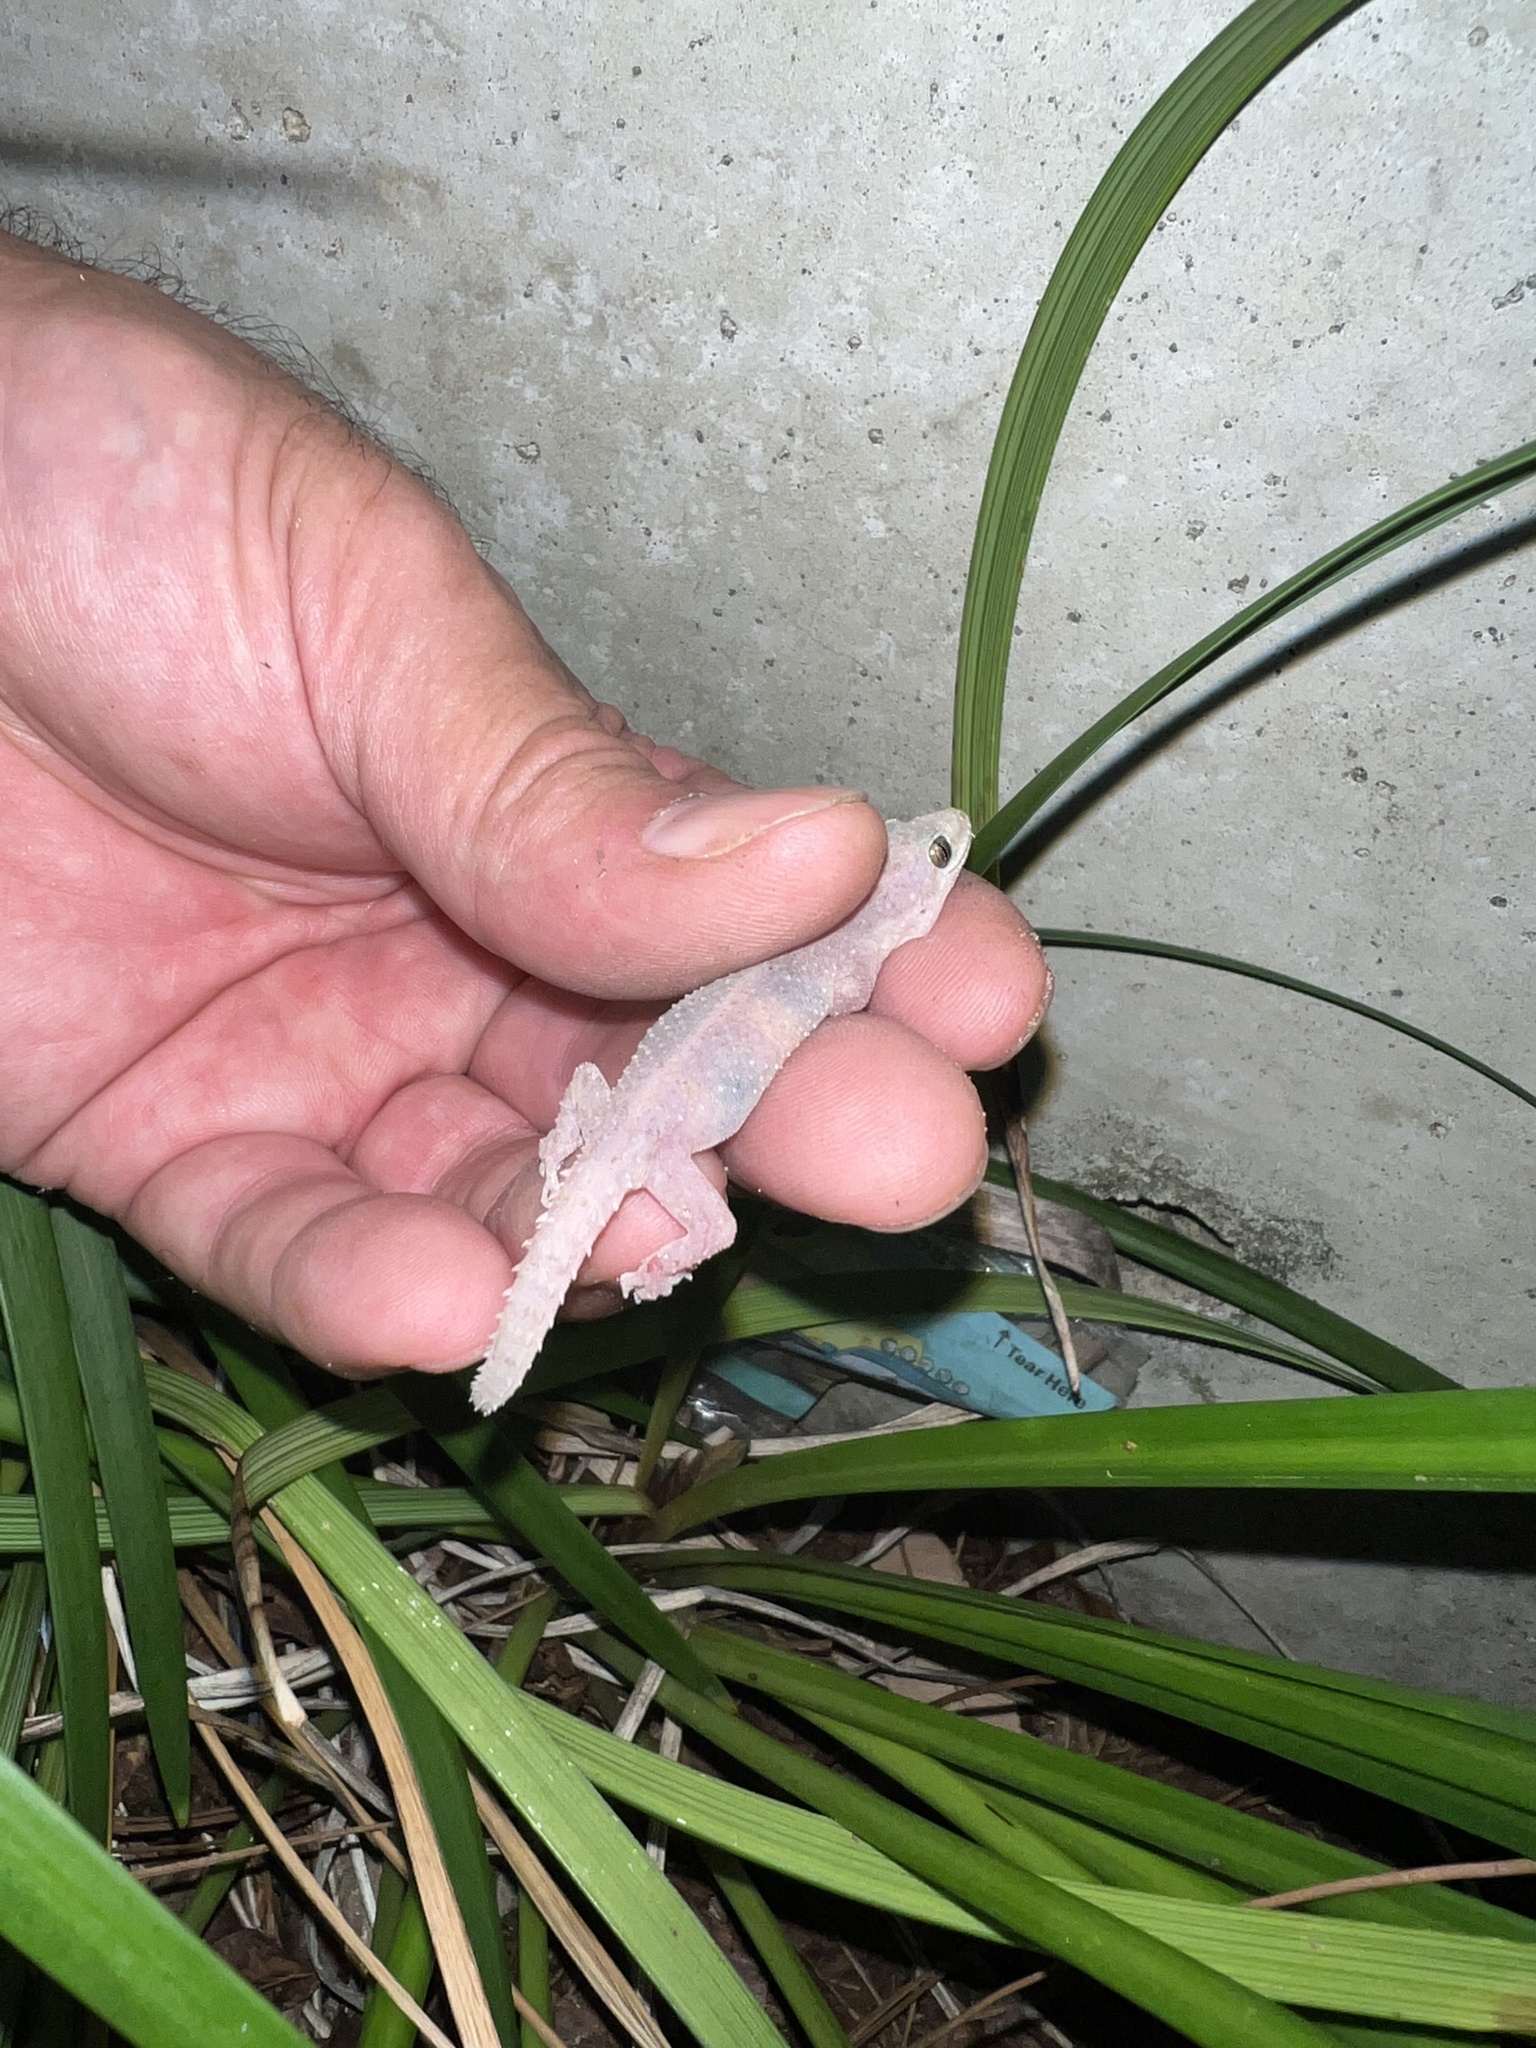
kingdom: Animalia
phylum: Chordata
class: Squamata
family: Gekkonidae
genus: Hemidactylus
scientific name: Hemidactylus parvimaculatus
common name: Spotted house gecko
